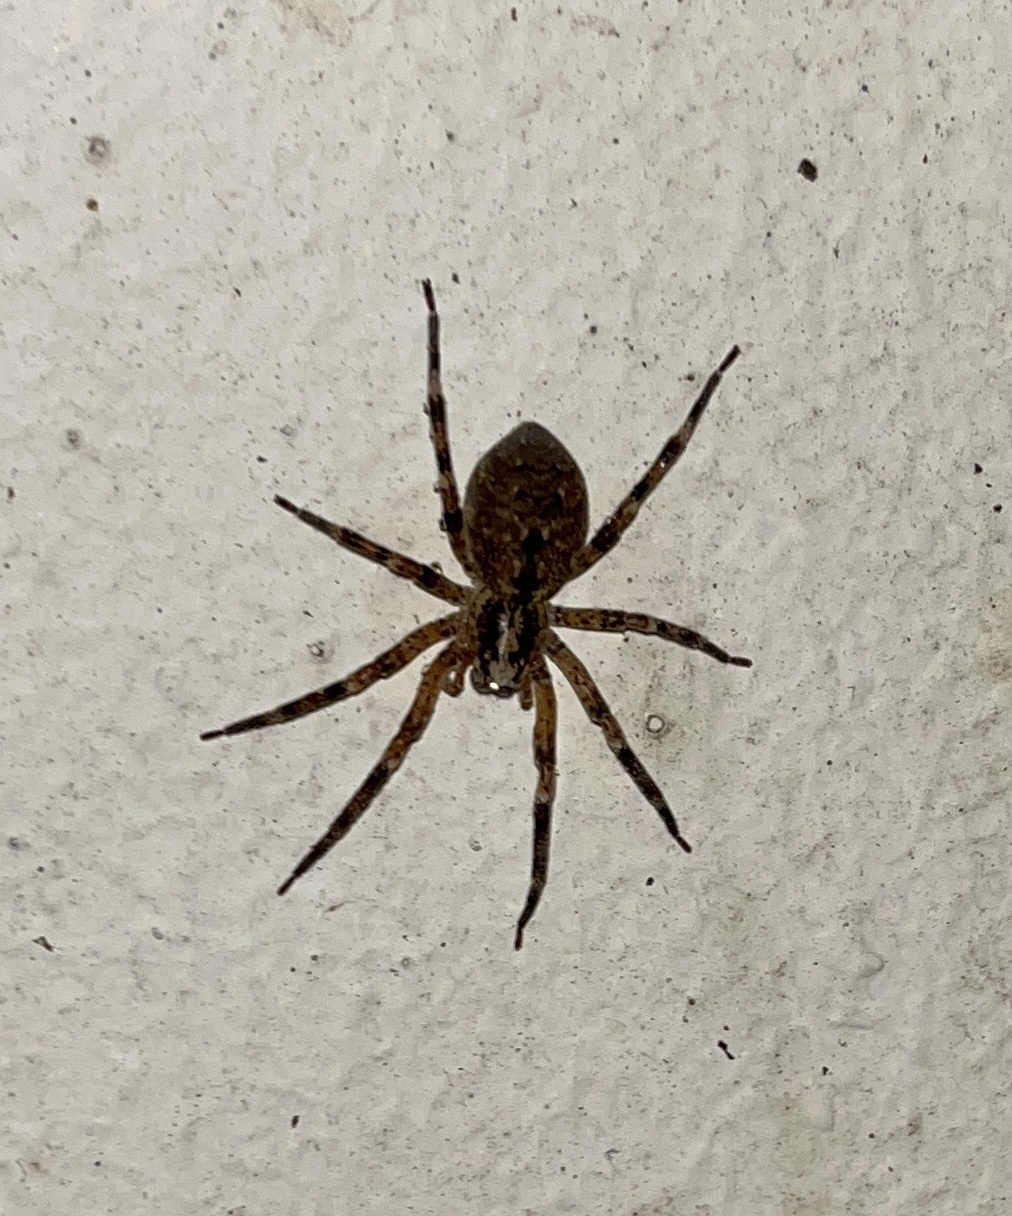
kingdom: Animalia
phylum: Arthropoda
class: Arachnida
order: Araneae
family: Zoropsidae
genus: Zoropsis
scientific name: Zoropsis spinimana
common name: Zoropsid spider
